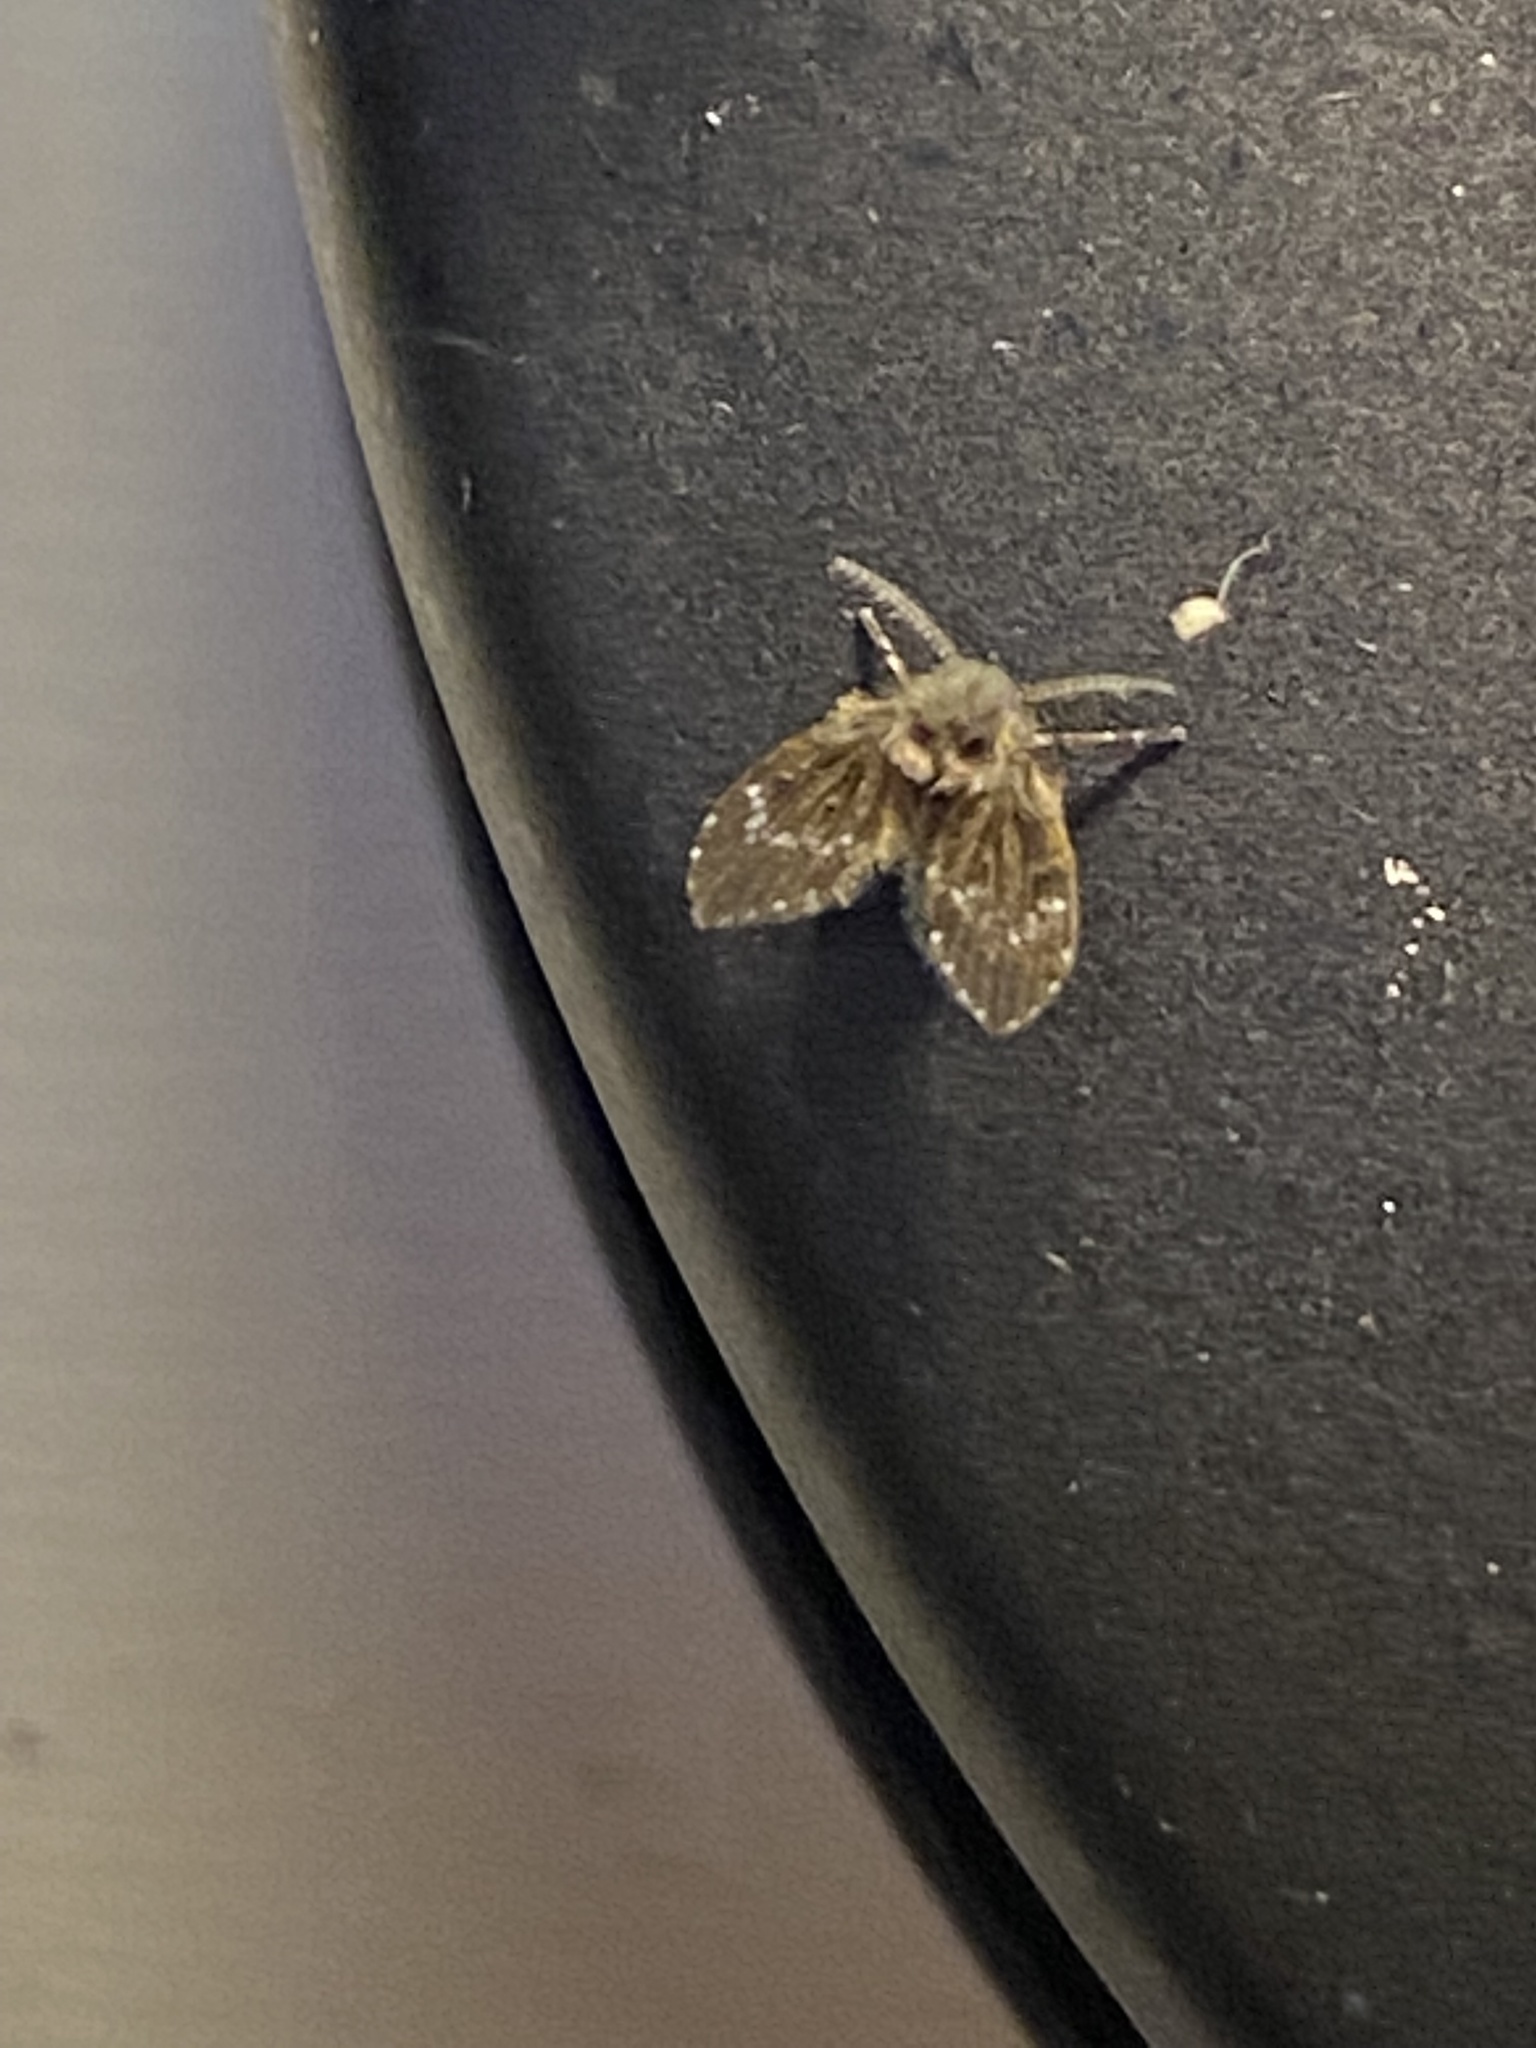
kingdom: Animalia
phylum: Arthropoda
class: Insecta
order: Diptera
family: Psychodidae
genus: Clogmia
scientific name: Clogmia albipunctatus
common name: White-spotted moth fly
